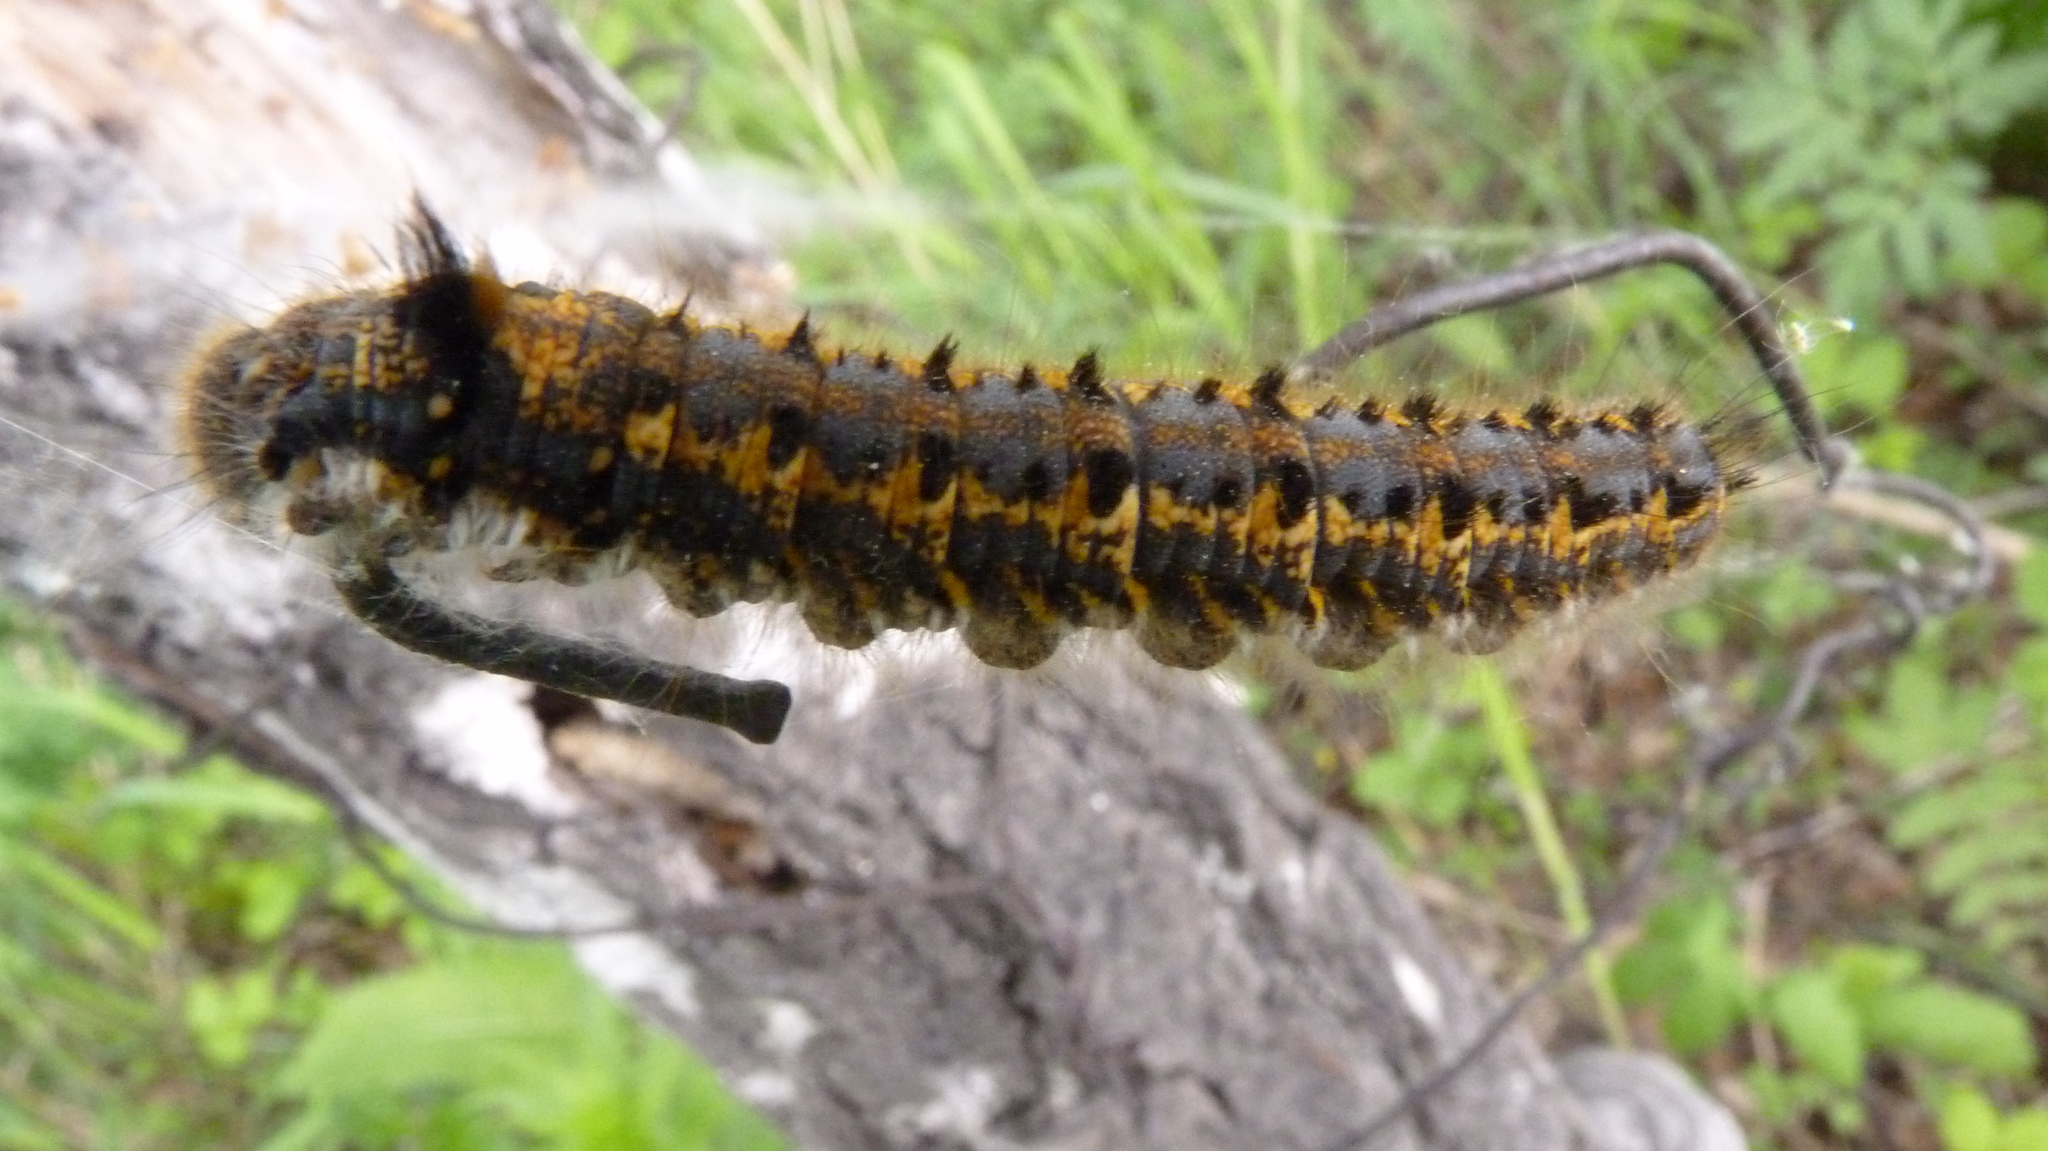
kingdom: Animalia
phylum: Arthropoda
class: Insecta
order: Lepidoptera
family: Lasiocampidae
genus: Euthrix
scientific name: Euthrix potatoria
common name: Drinker
